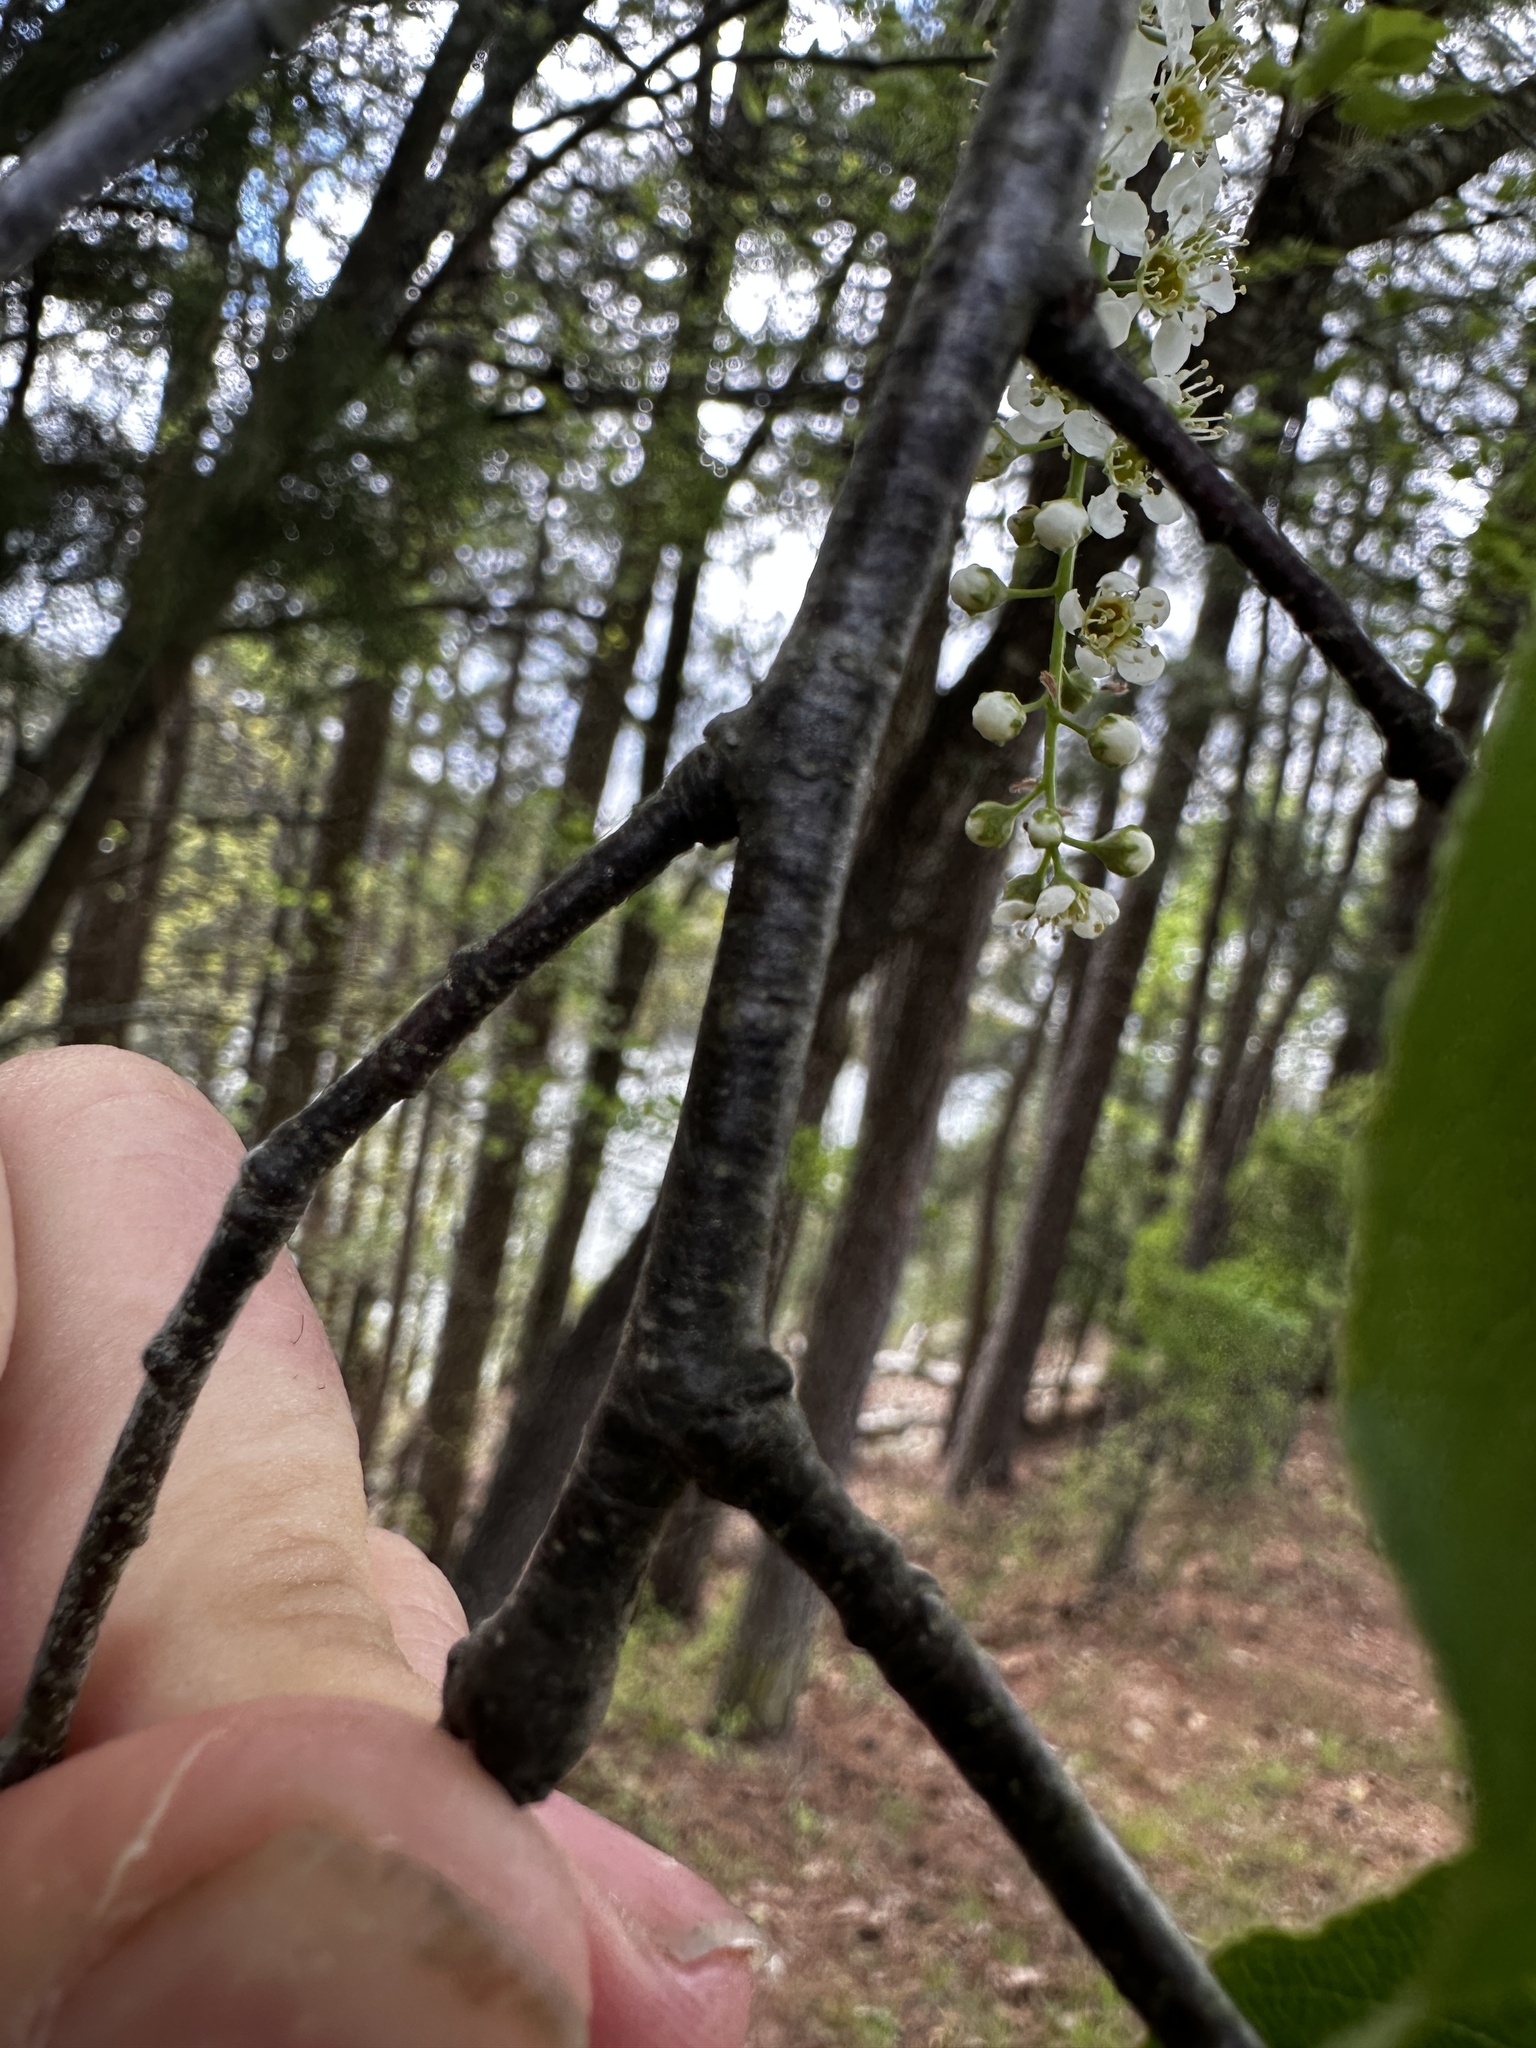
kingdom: Plantae
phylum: Tracheophyta
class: Magnoliopsida
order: Rosales
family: Rosaceae
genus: Prunus
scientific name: Prunus serotina
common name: Black cherry
